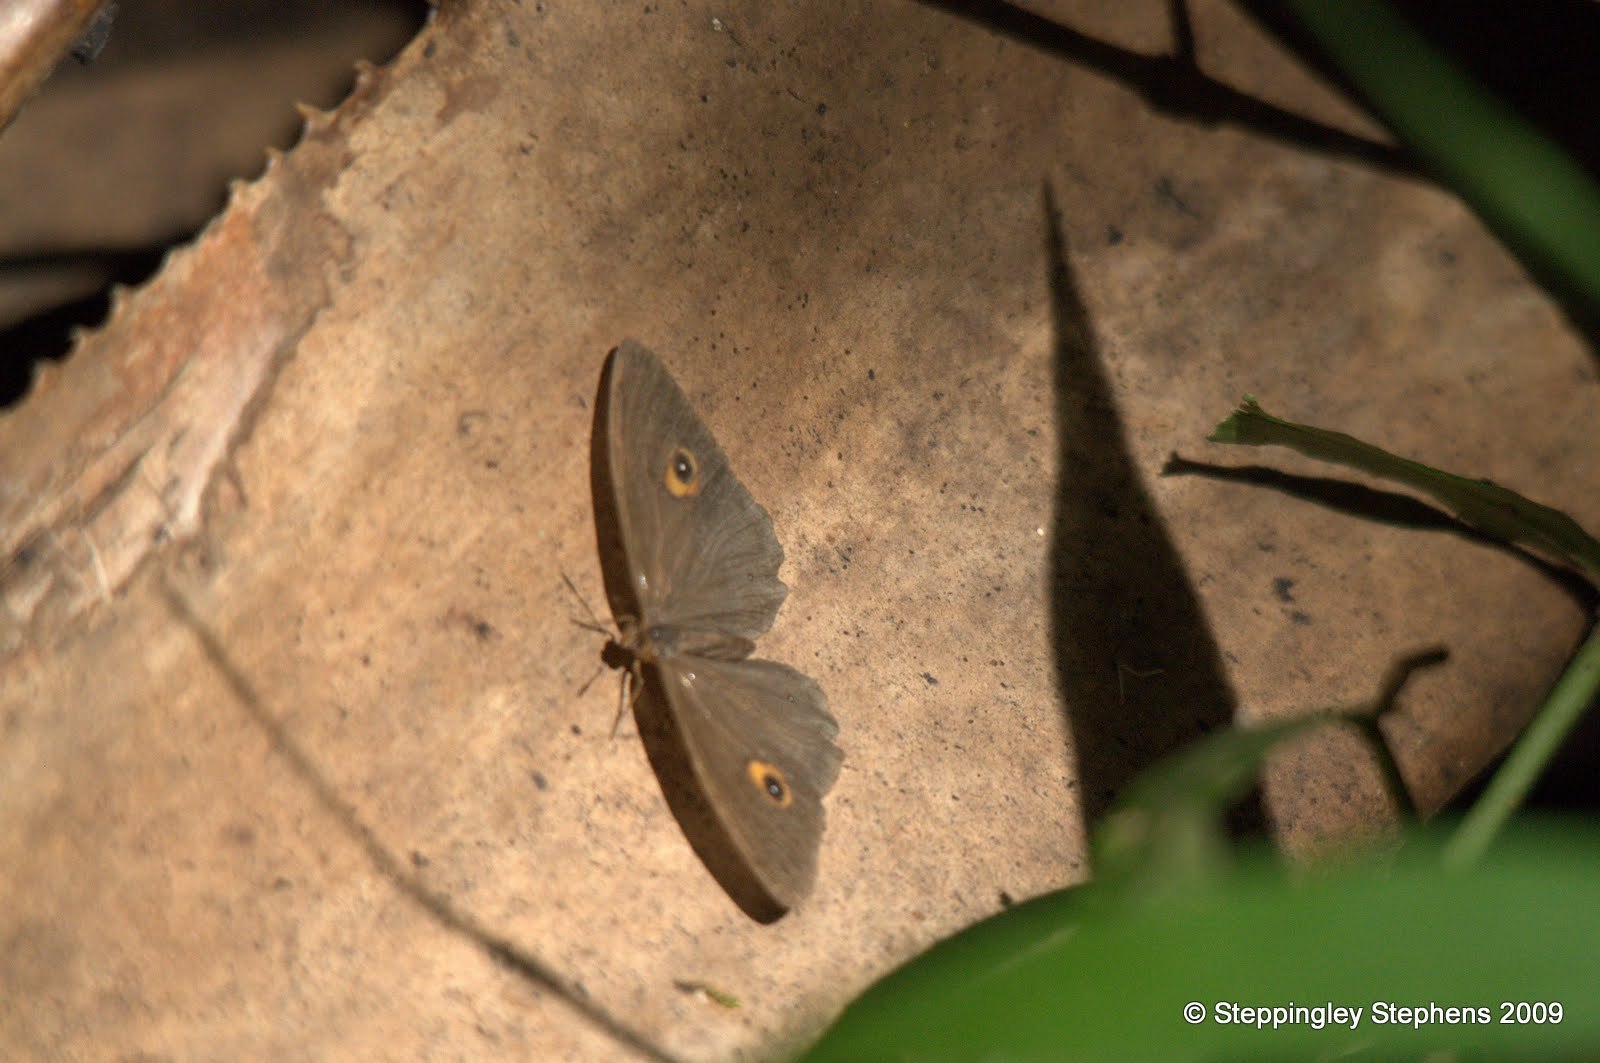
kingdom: Animalia
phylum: Arthropoda
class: Insecta
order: Lepidoptera
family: Nymphalidae
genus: Heteropsis
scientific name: Heteropsis pauper
